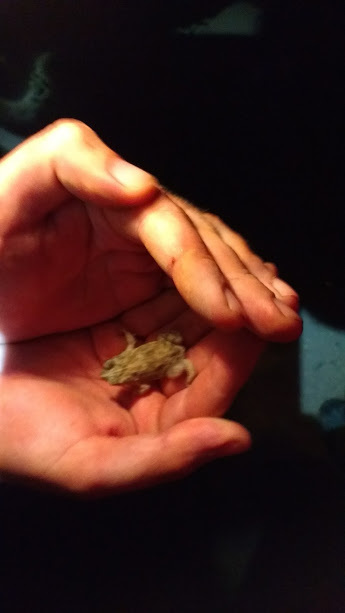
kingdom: Animalia
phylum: Chordata
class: Amphibia
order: Anura
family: Bufonidae
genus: Rhinella
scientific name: Rhinella major
